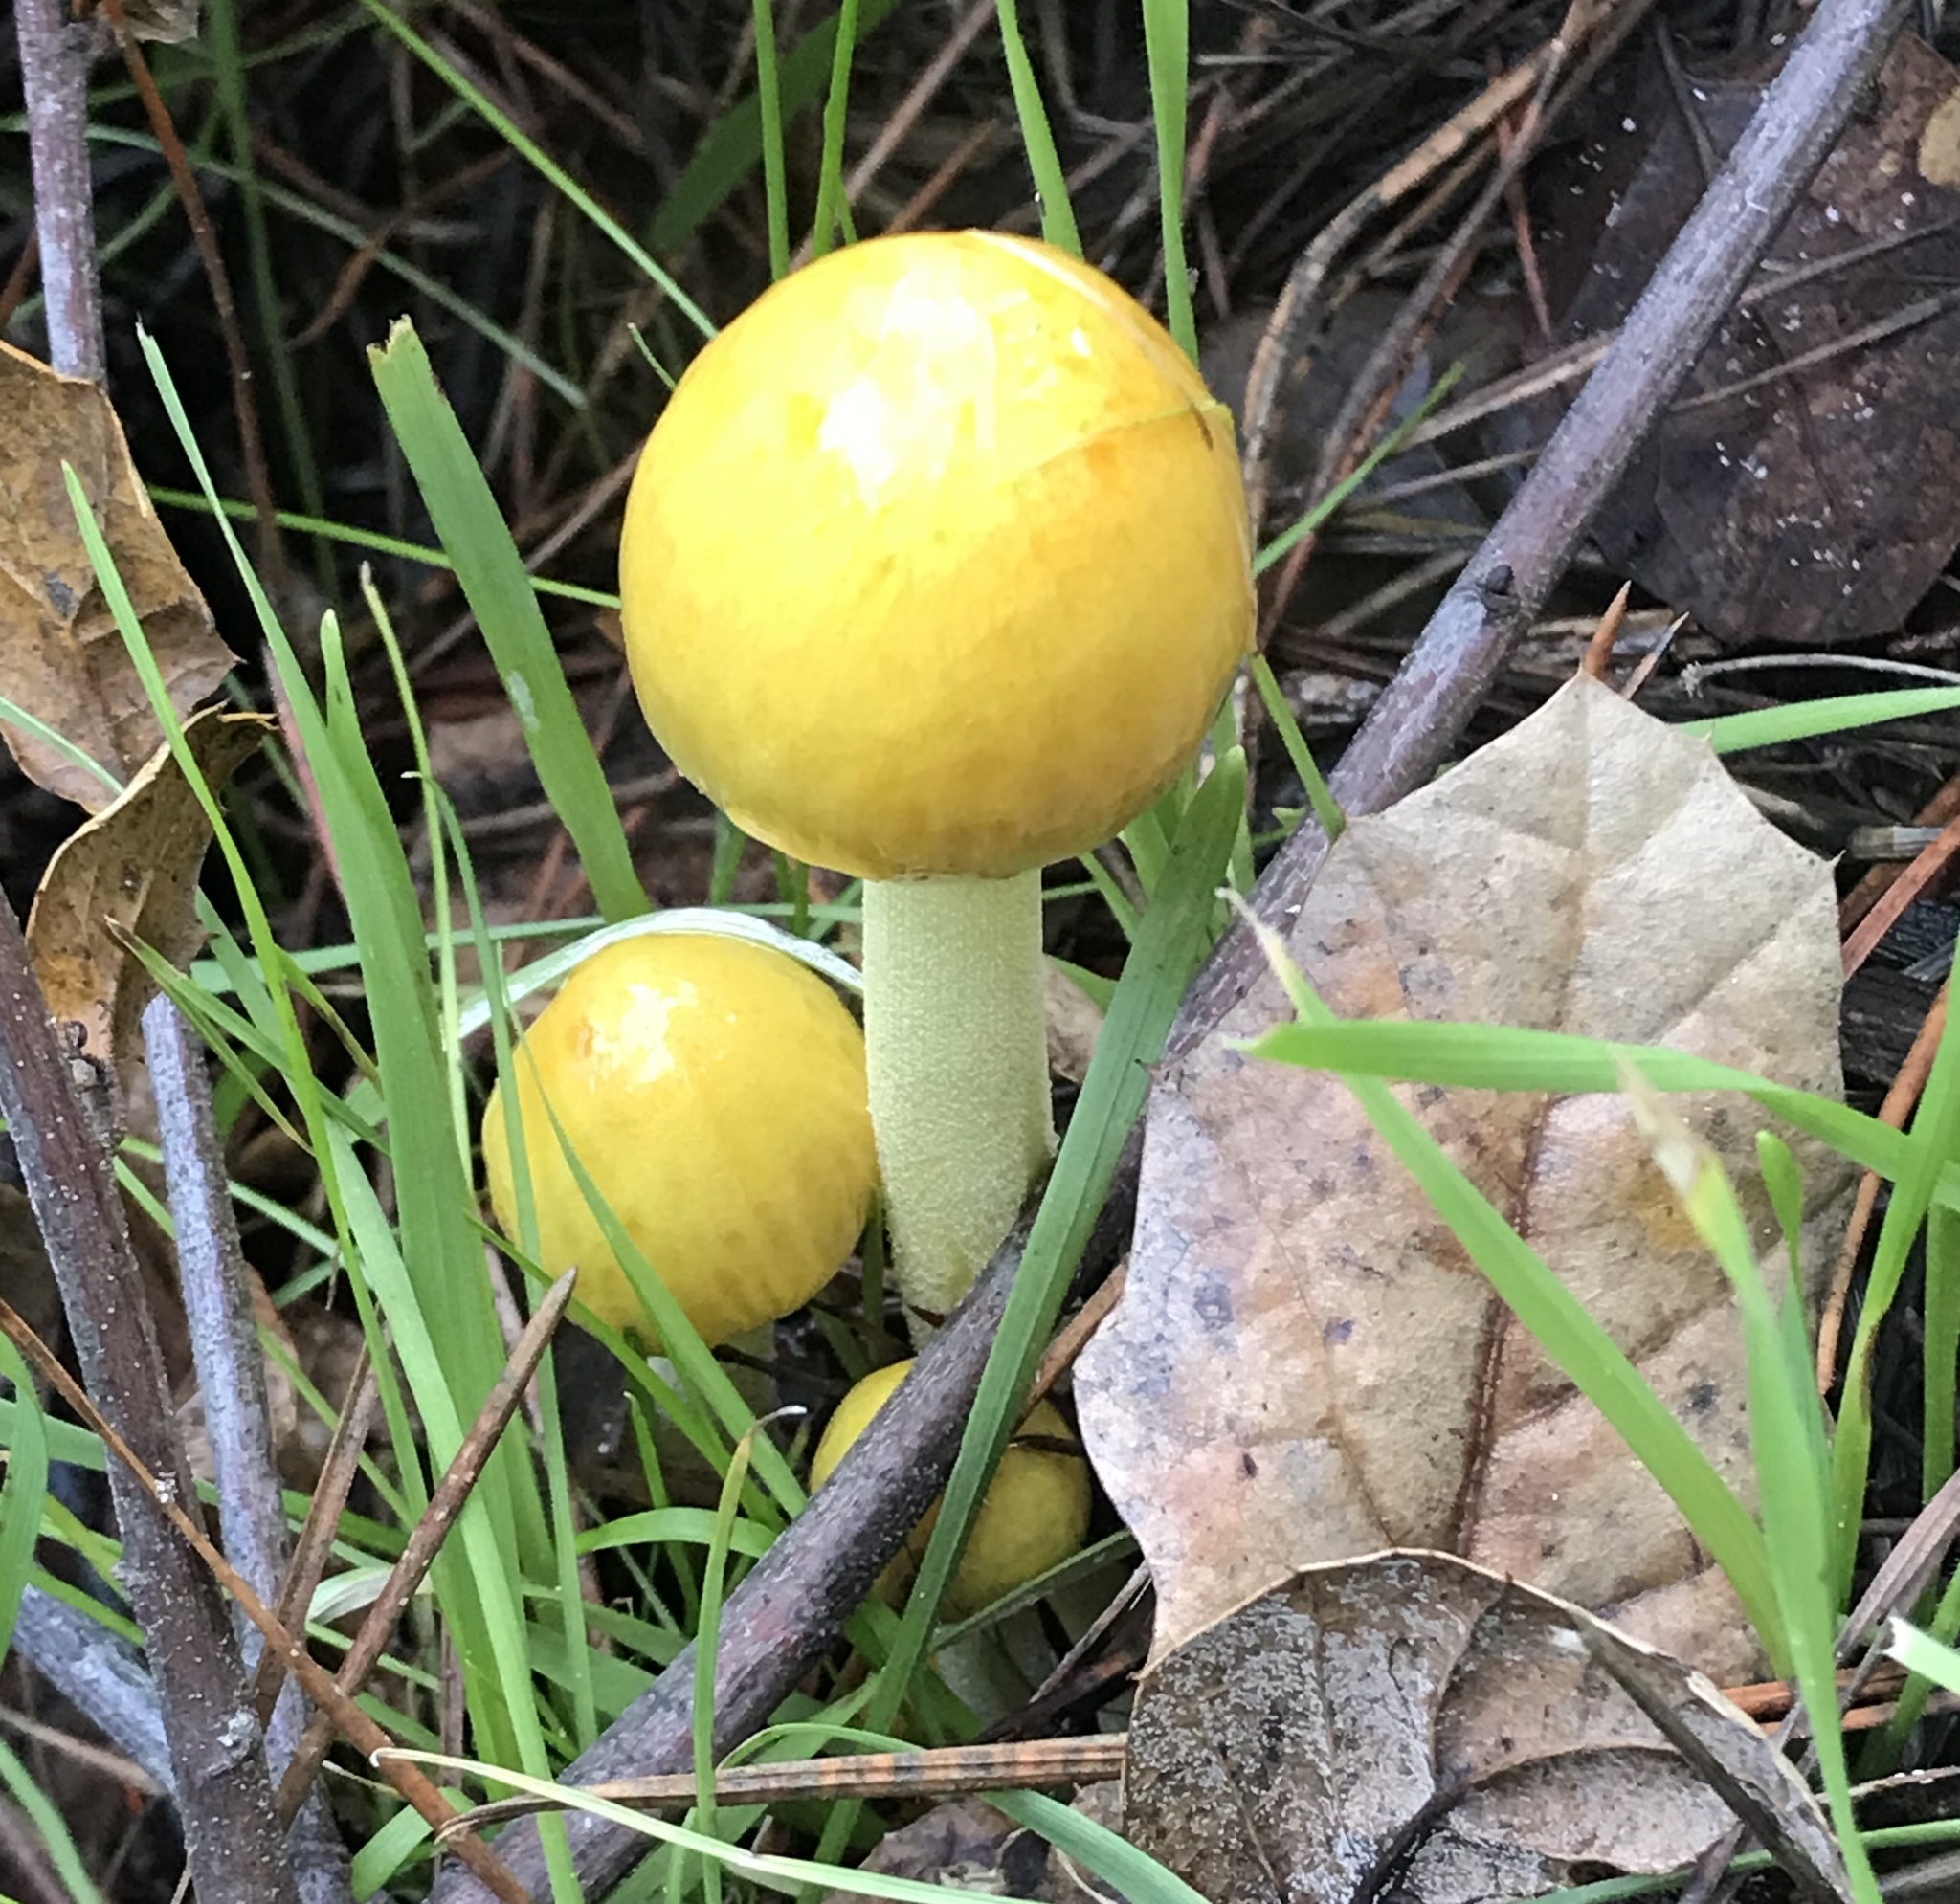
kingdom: Fungi
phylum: Basidiomycota
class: Agaricomycetes
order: Agaricales
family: Bolbitiaceae
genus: Bolbitius
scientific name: Bolbitius titubans
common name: Yellow fieldcap
